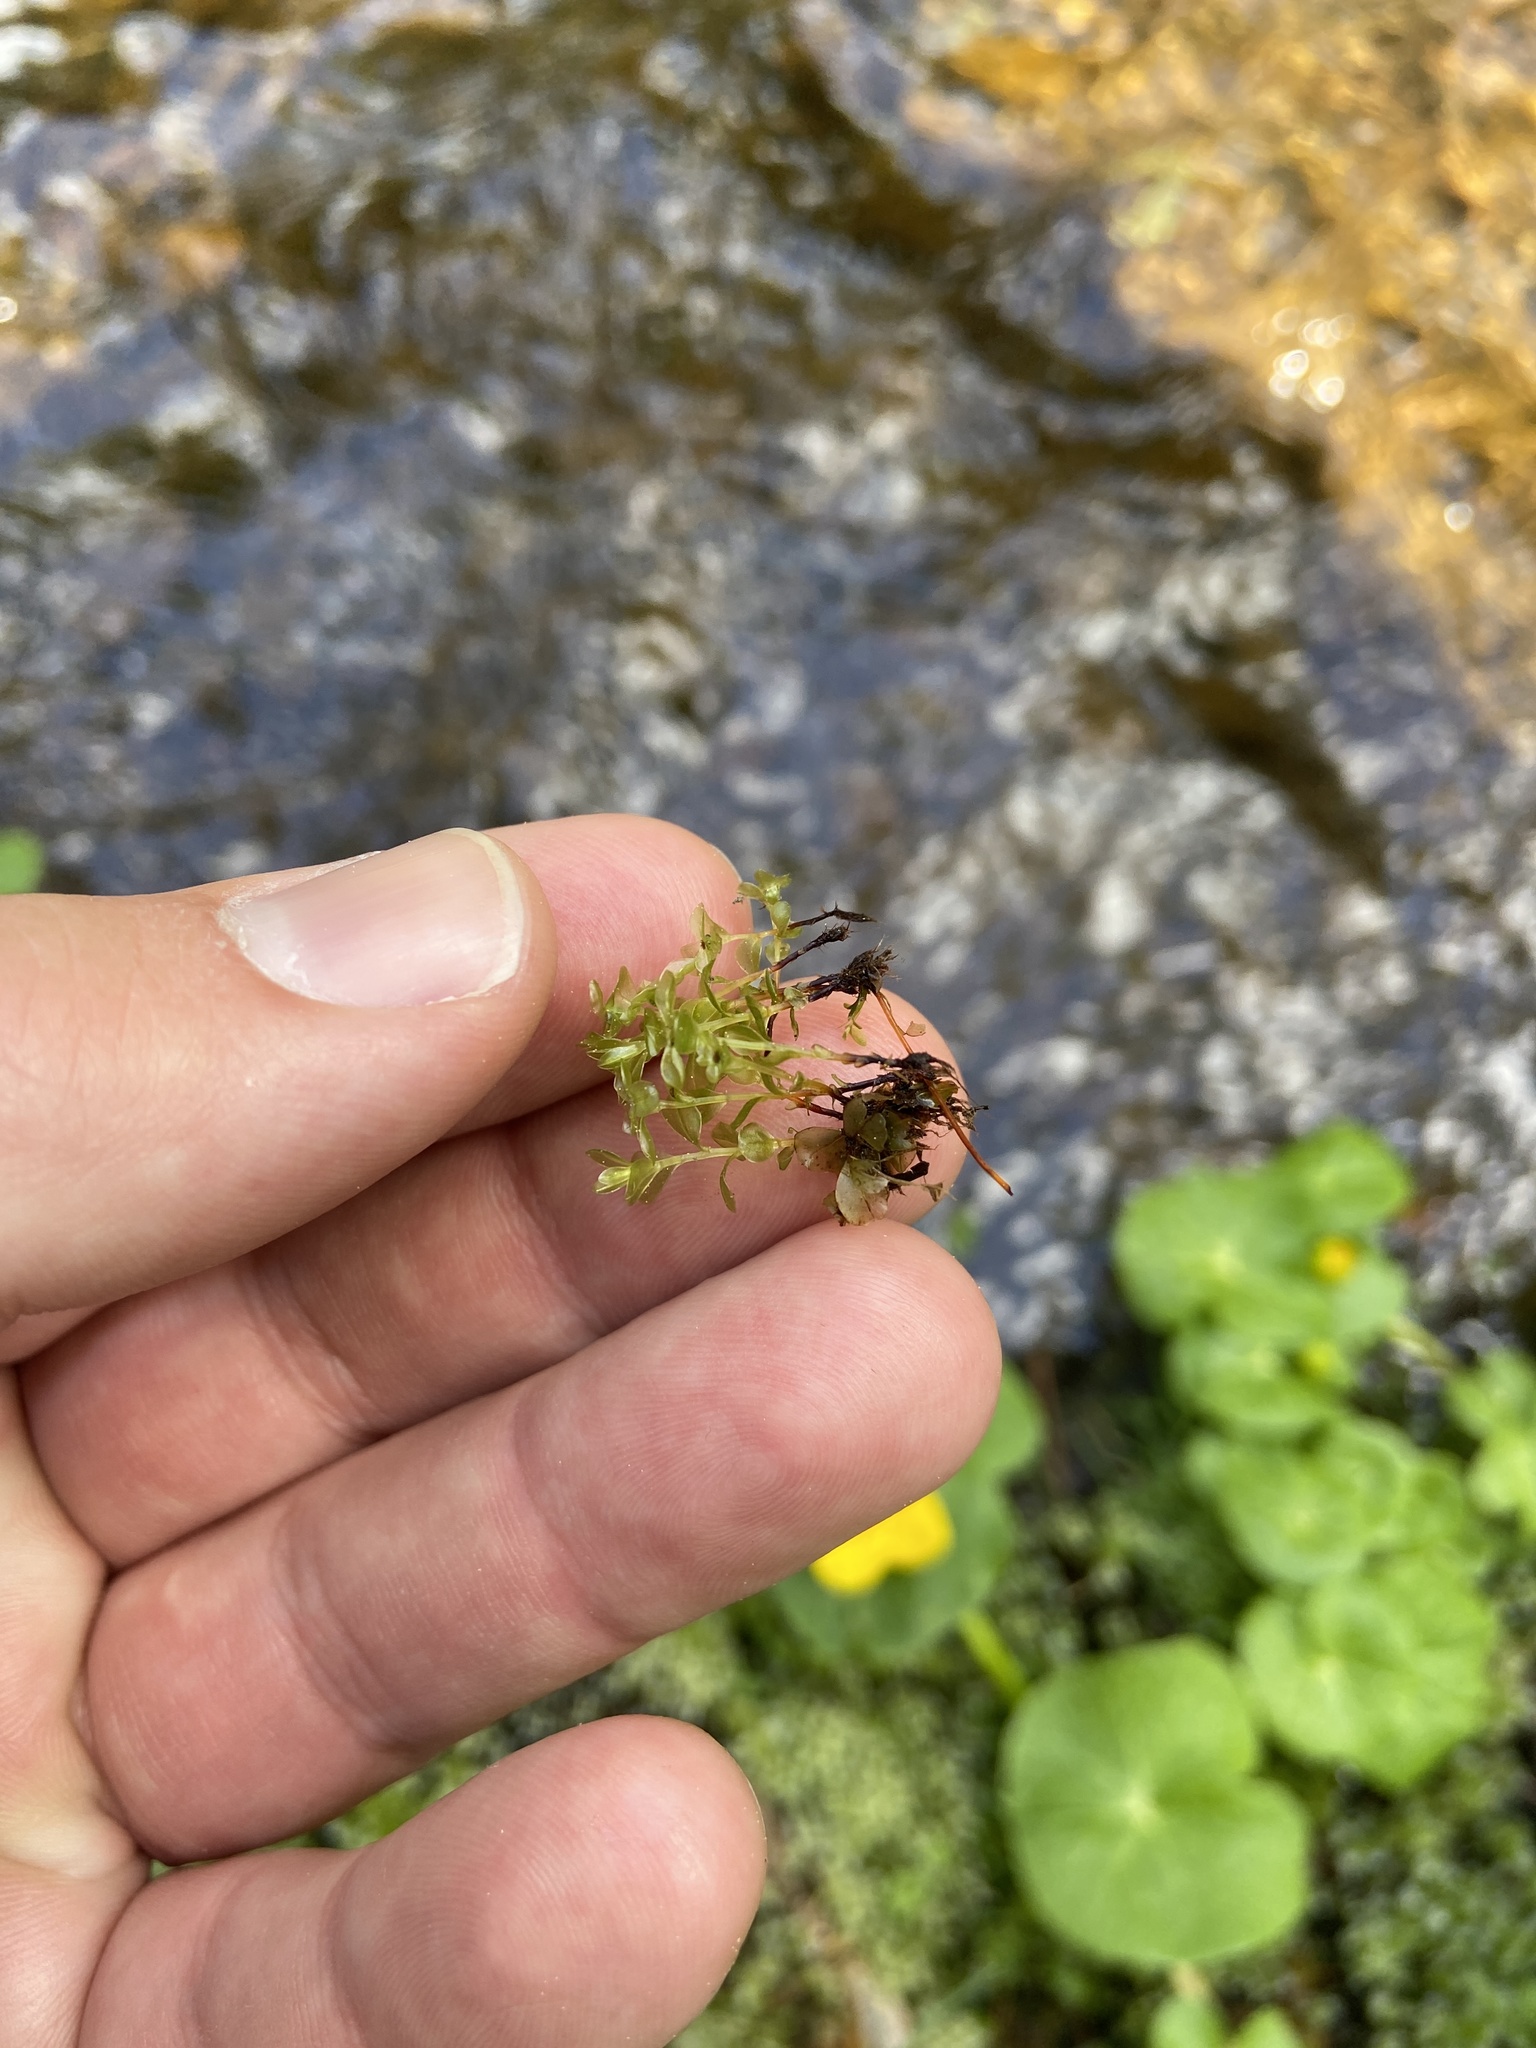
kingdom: Plantae
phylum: Bryophyta
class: Bryopsida
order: Bryales
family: Mniaceae
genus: Rhizomnium
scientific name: Rhizomnium punctatum
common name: Dotted leafy moss
